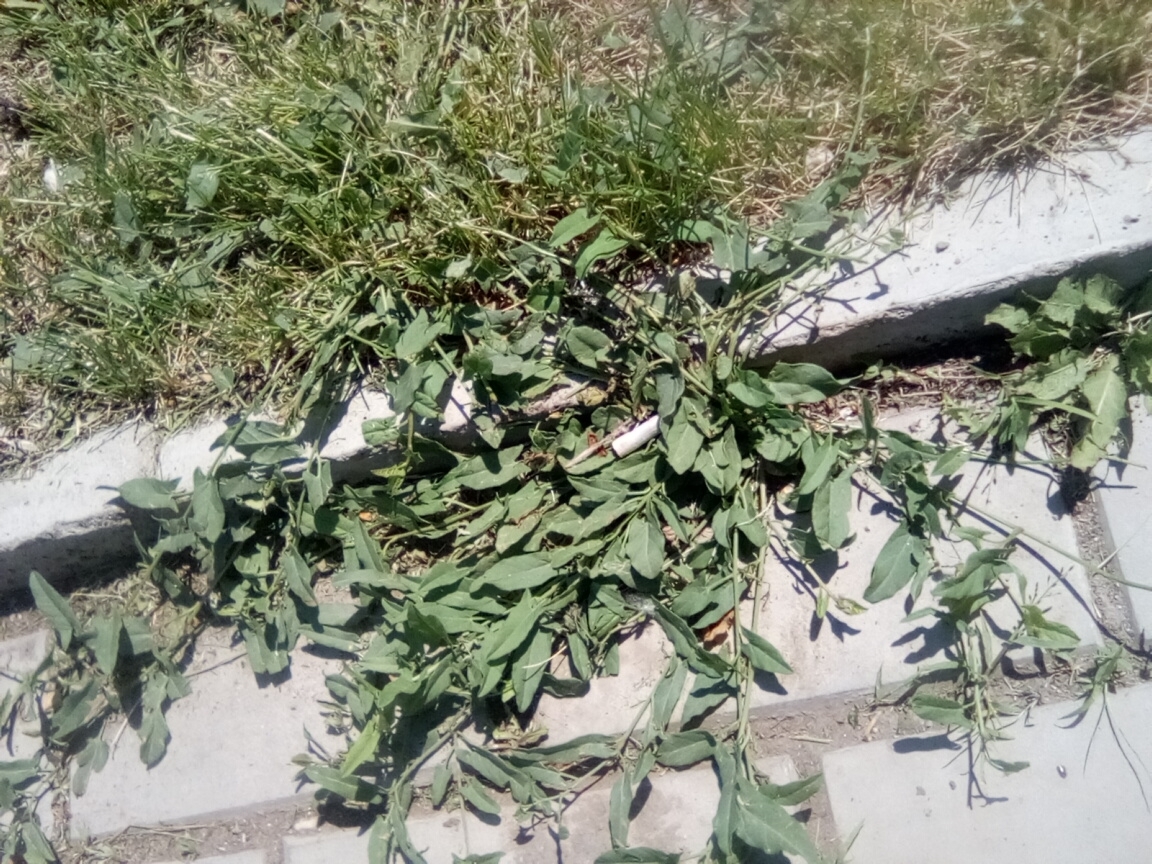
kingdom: Plantae
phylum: Tracheophyta
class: Magnoliopsida
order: Solanales
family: Convolvulaceae
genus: Convolvulus
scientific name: Convolvulus arvensis
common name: Field bindweed
